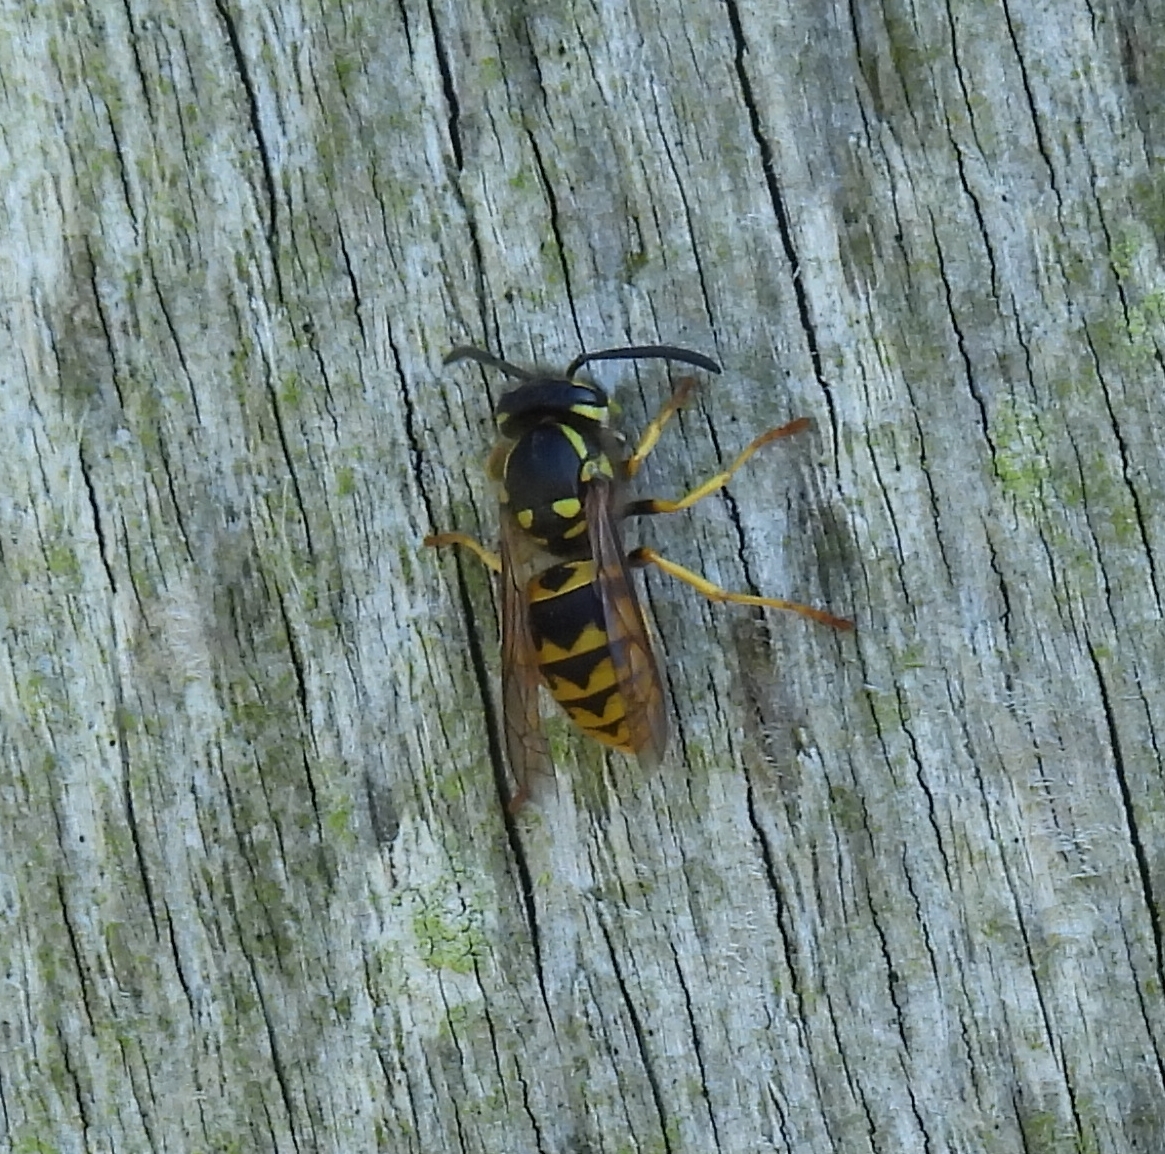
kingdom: Animalia
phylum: Arthropoda
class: Insecta
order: Hymenoptera
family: Vespidae
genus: Vespula
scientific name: Vespula germanica
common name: German wasp
